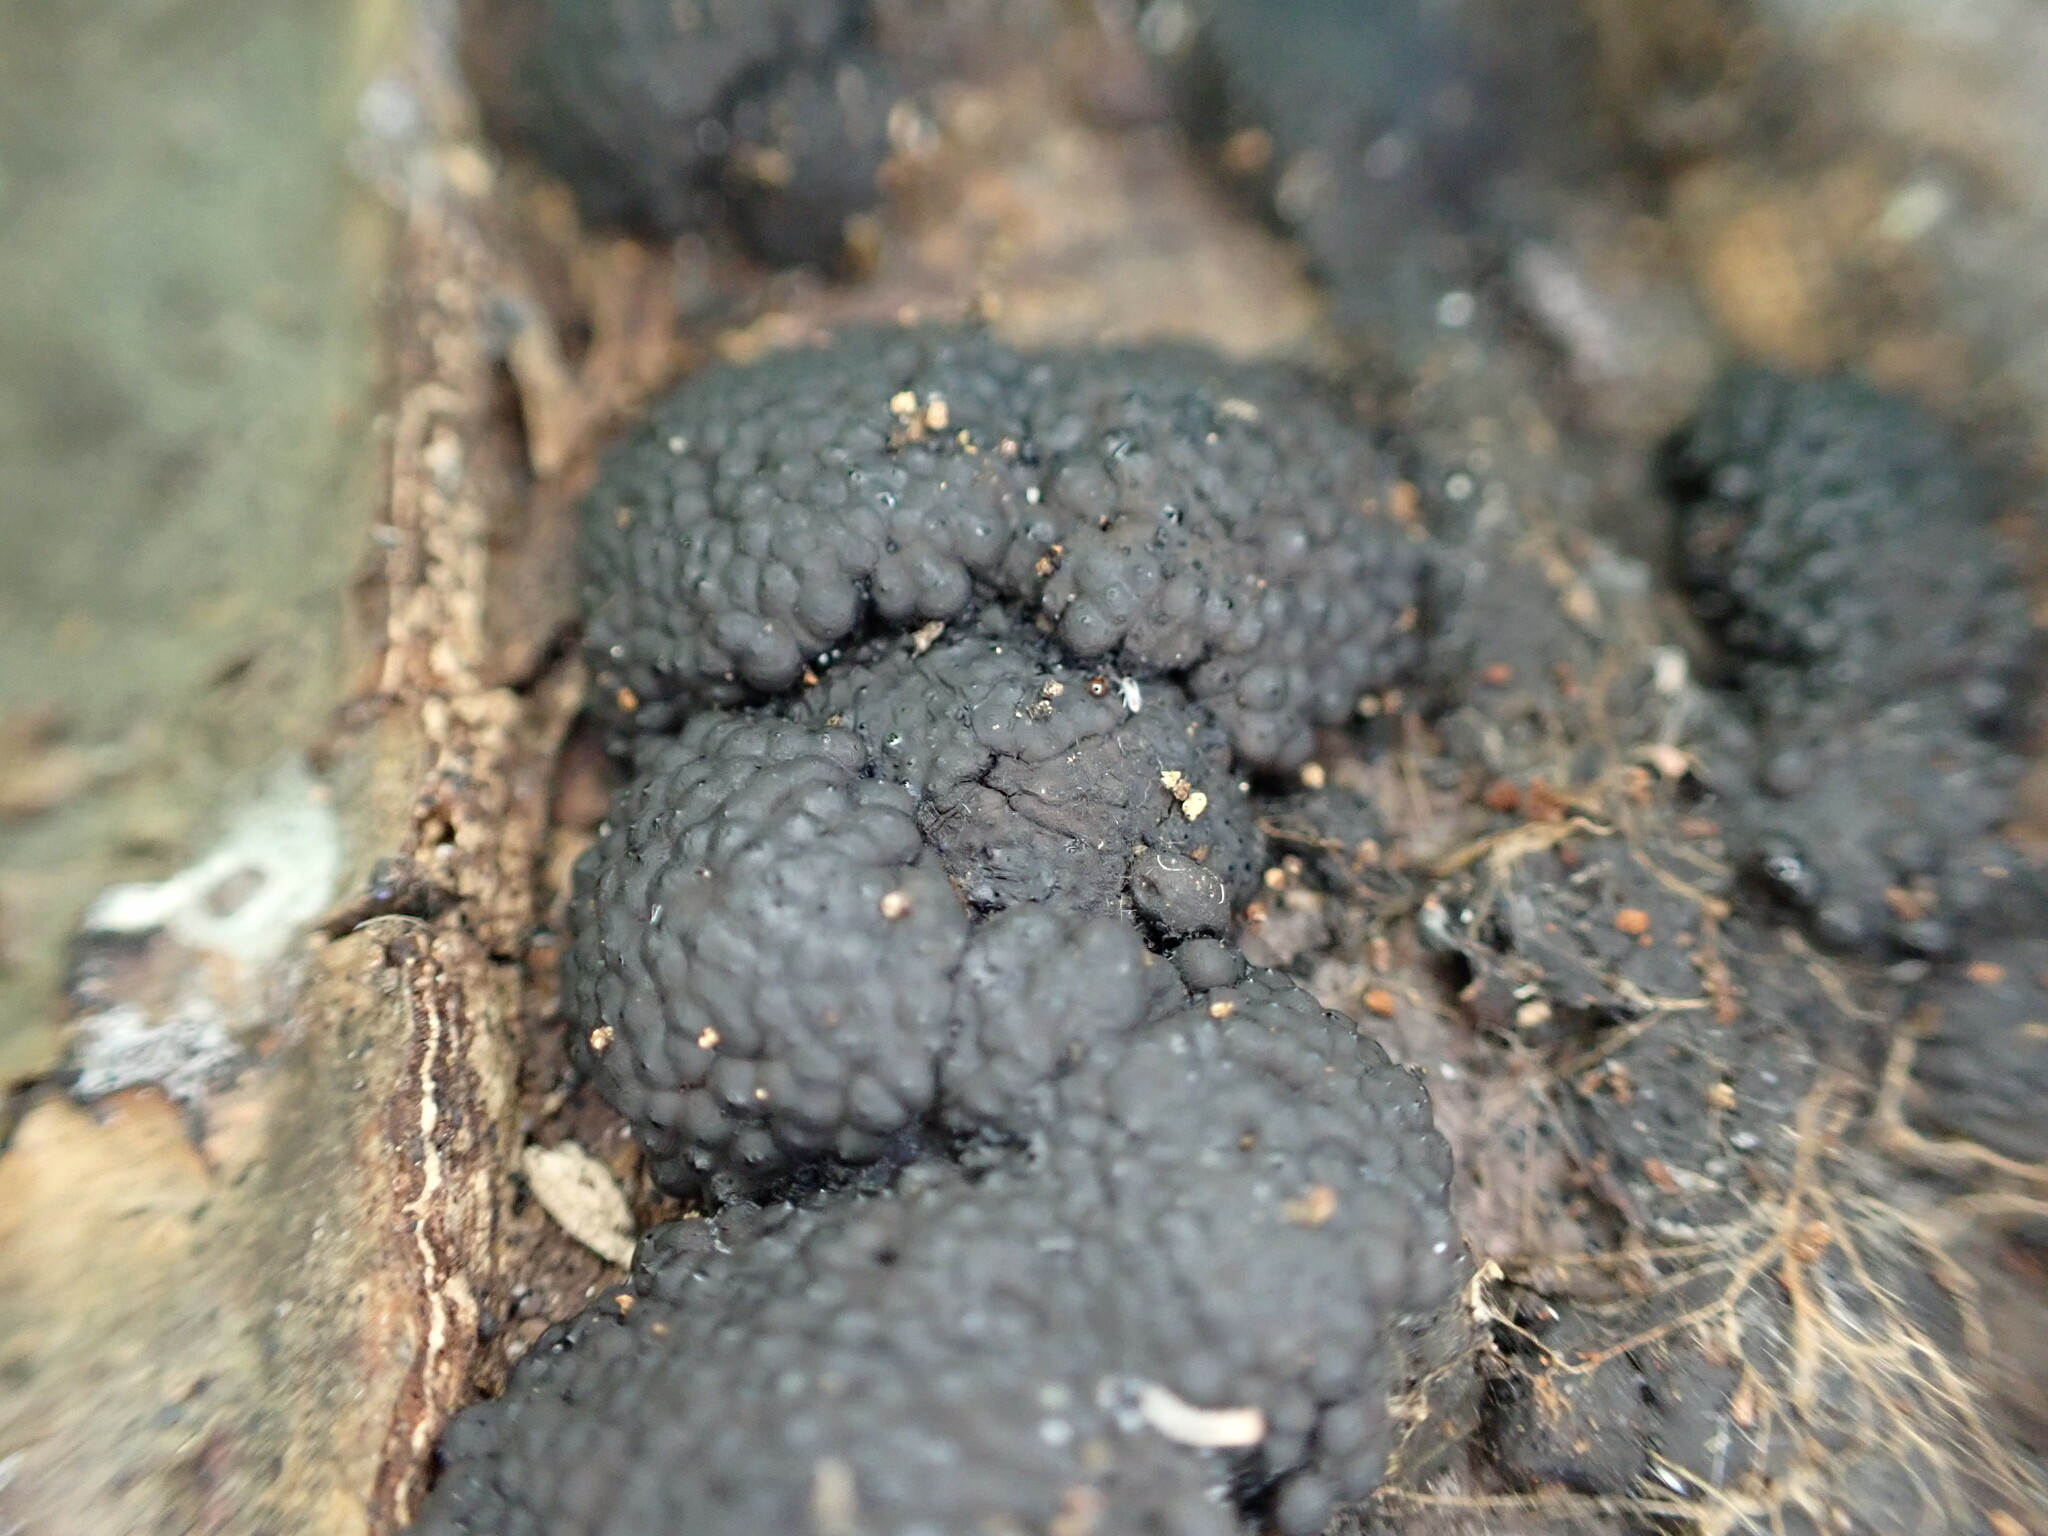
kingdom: Fungi
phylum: Ascomycota
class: Sordariomycetes
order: Xylariales
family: Hypoxylaceae
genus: Jackrogersella
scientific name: Jackrogersella multiformis
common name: Birch woodwart
